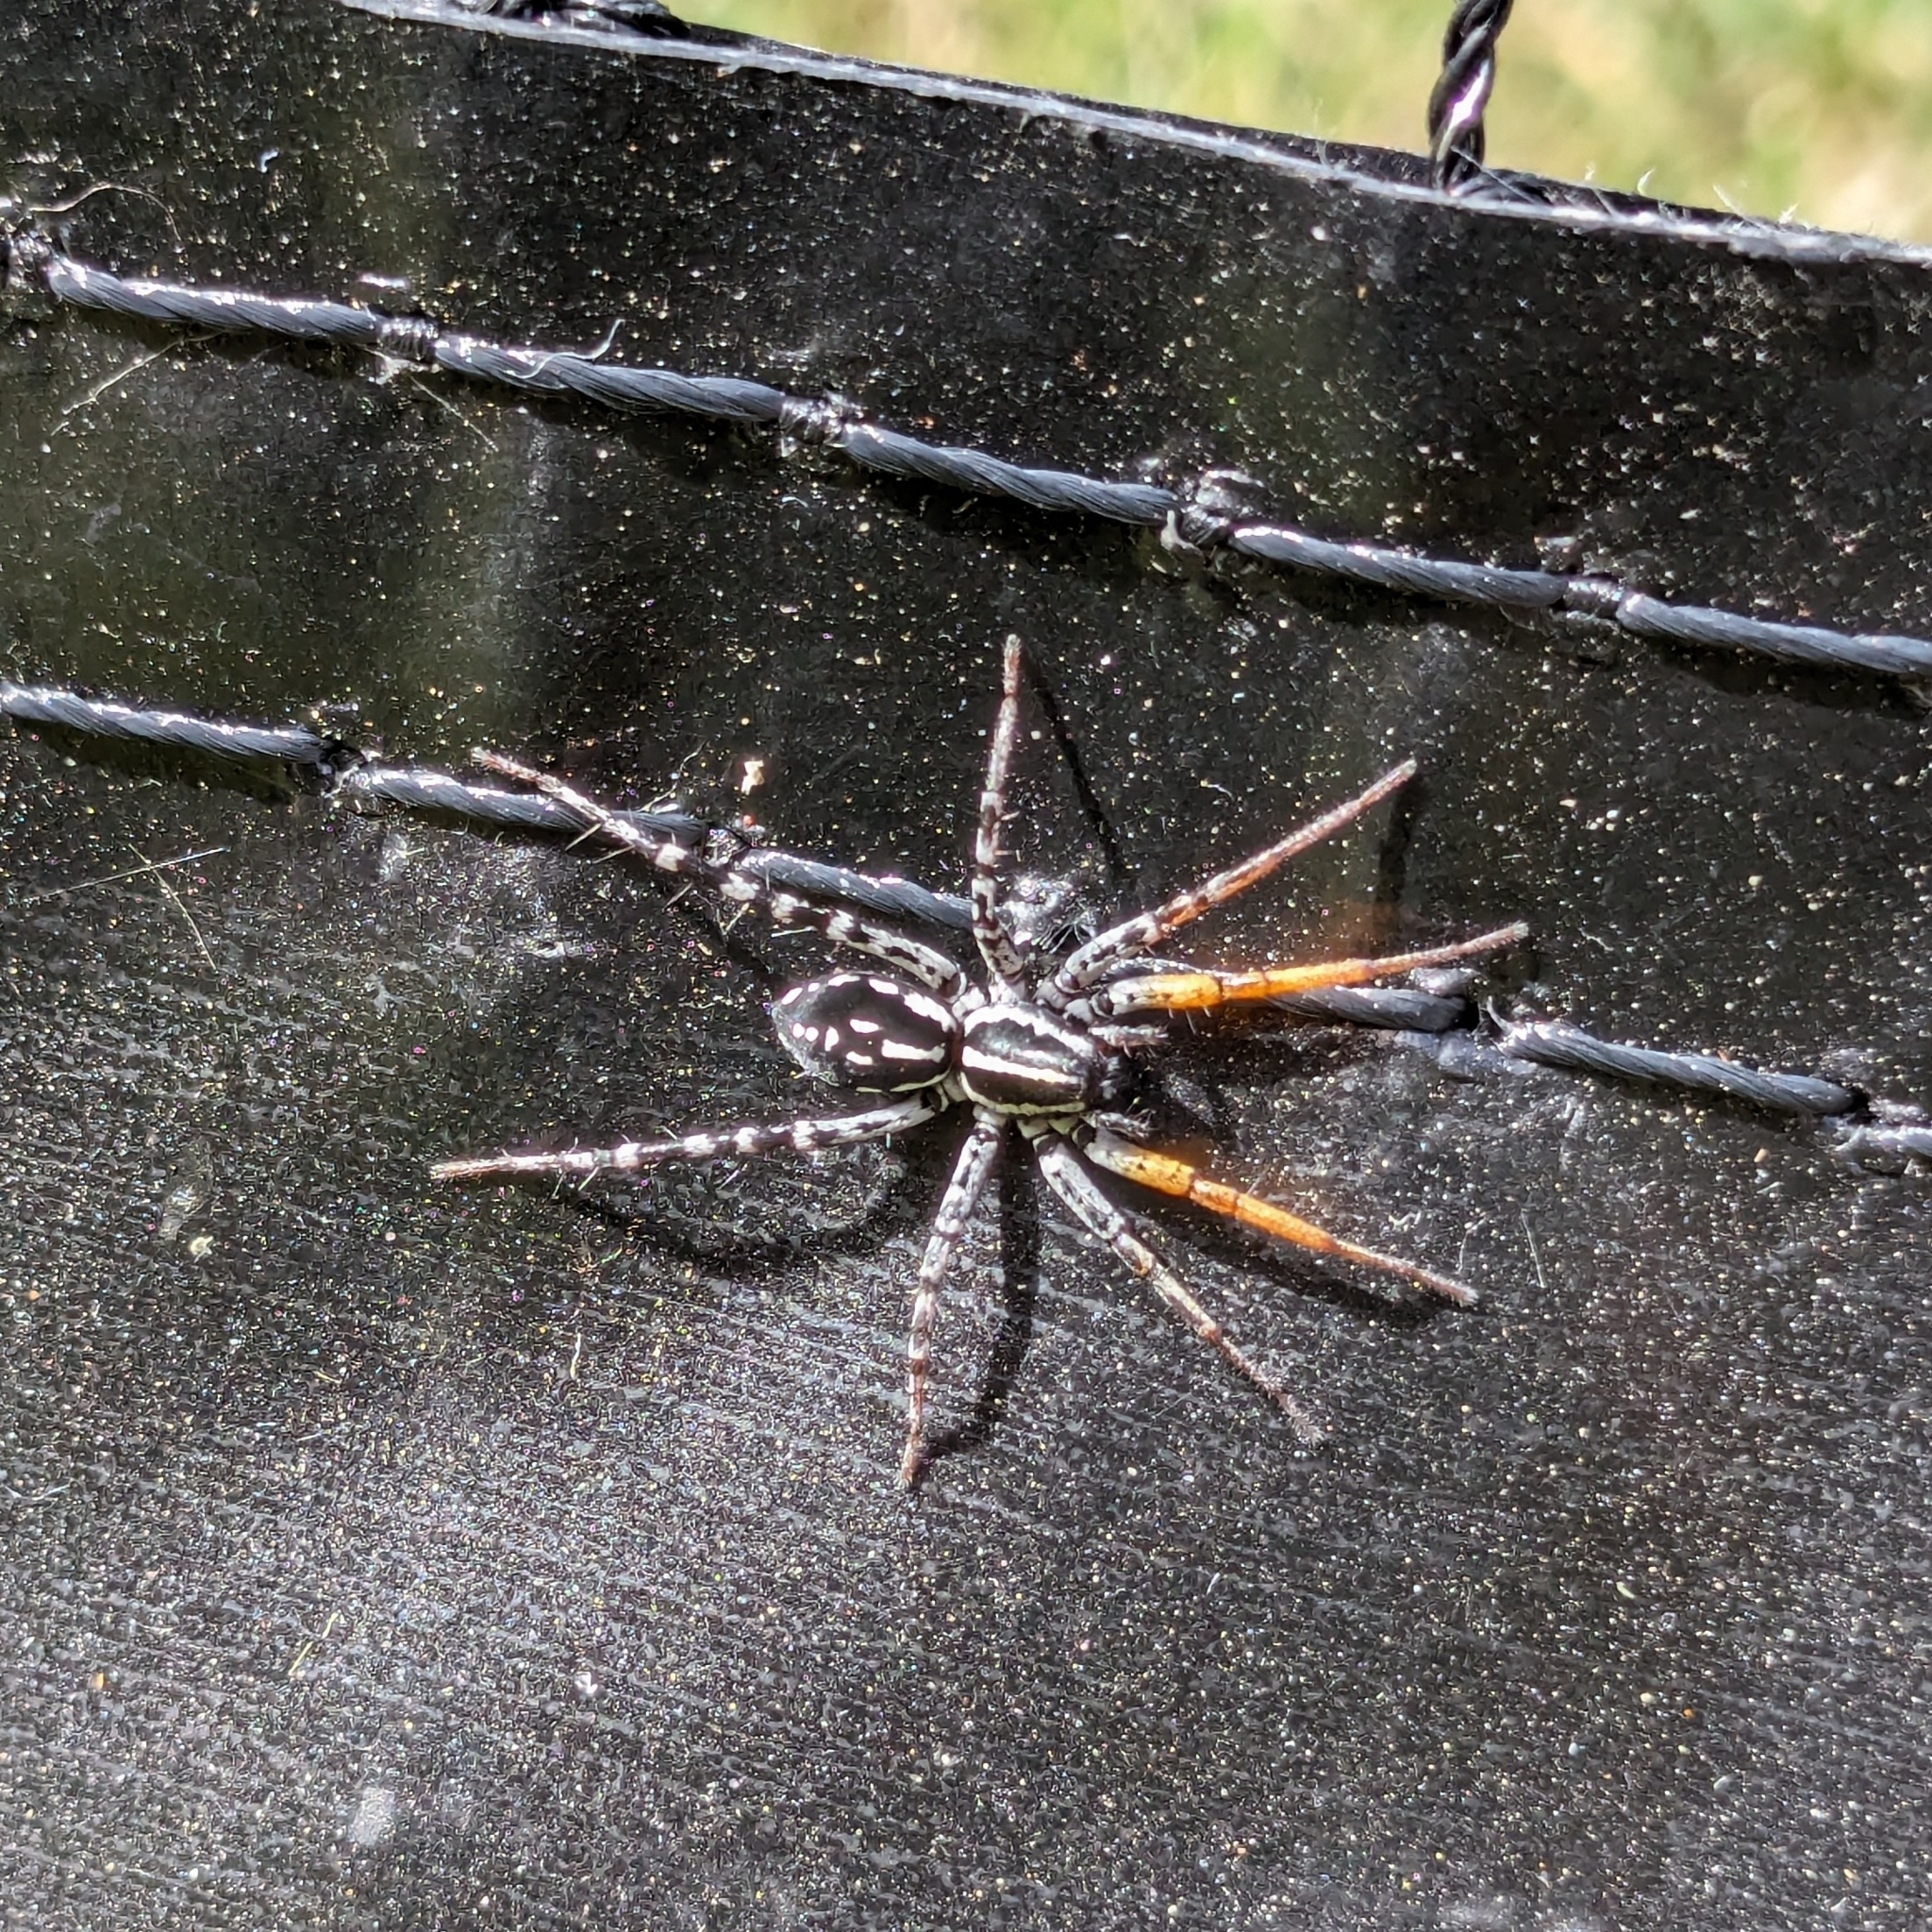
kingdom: Animalia
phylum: Arthropoda
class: Arachnida
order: Araneae
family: Corinnidae
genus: Nyssus
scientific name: Nyssus coloripes
